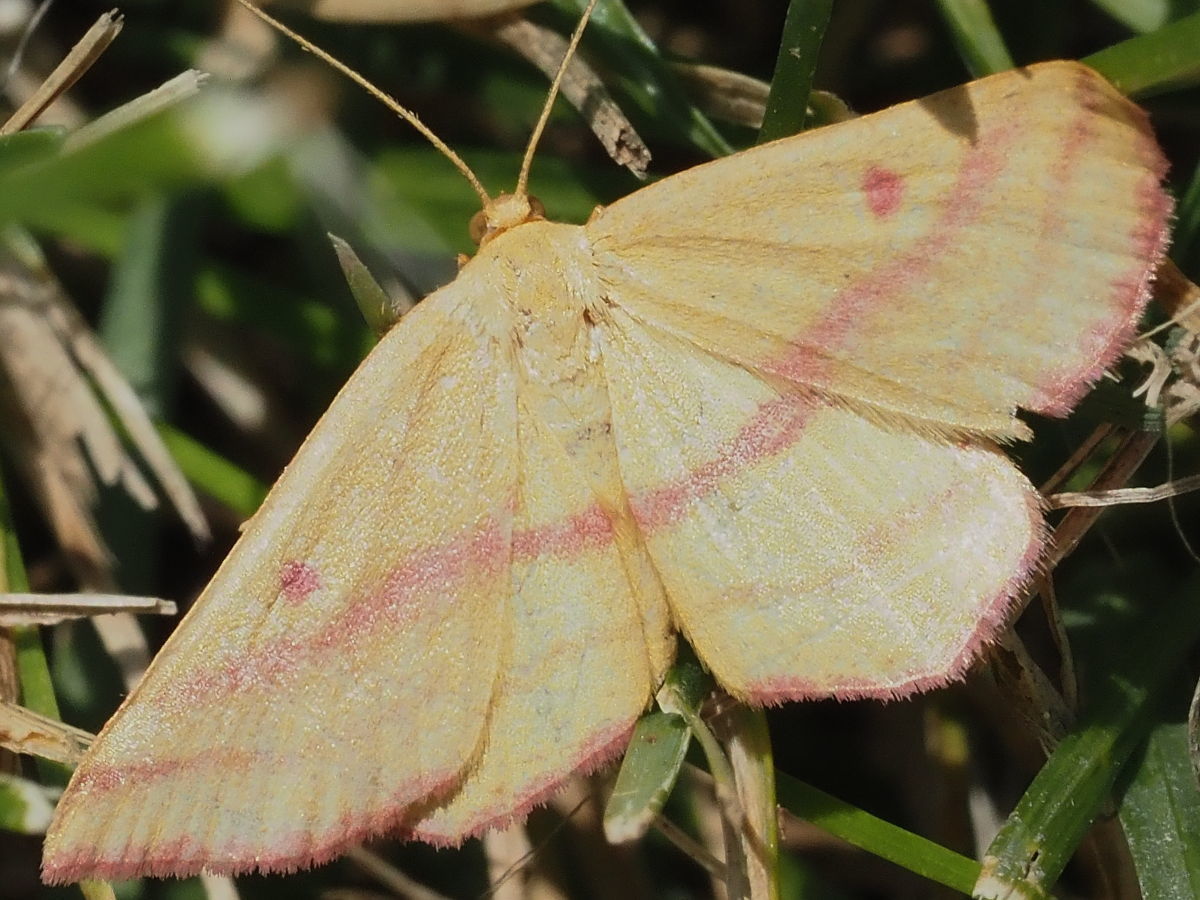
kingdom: Animalia
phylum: Arthropoda
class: Insecta
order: Lepidoptera
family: Geometridae
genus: Haematopis
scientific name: Haematopis grataria
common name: Chickweed geometer
